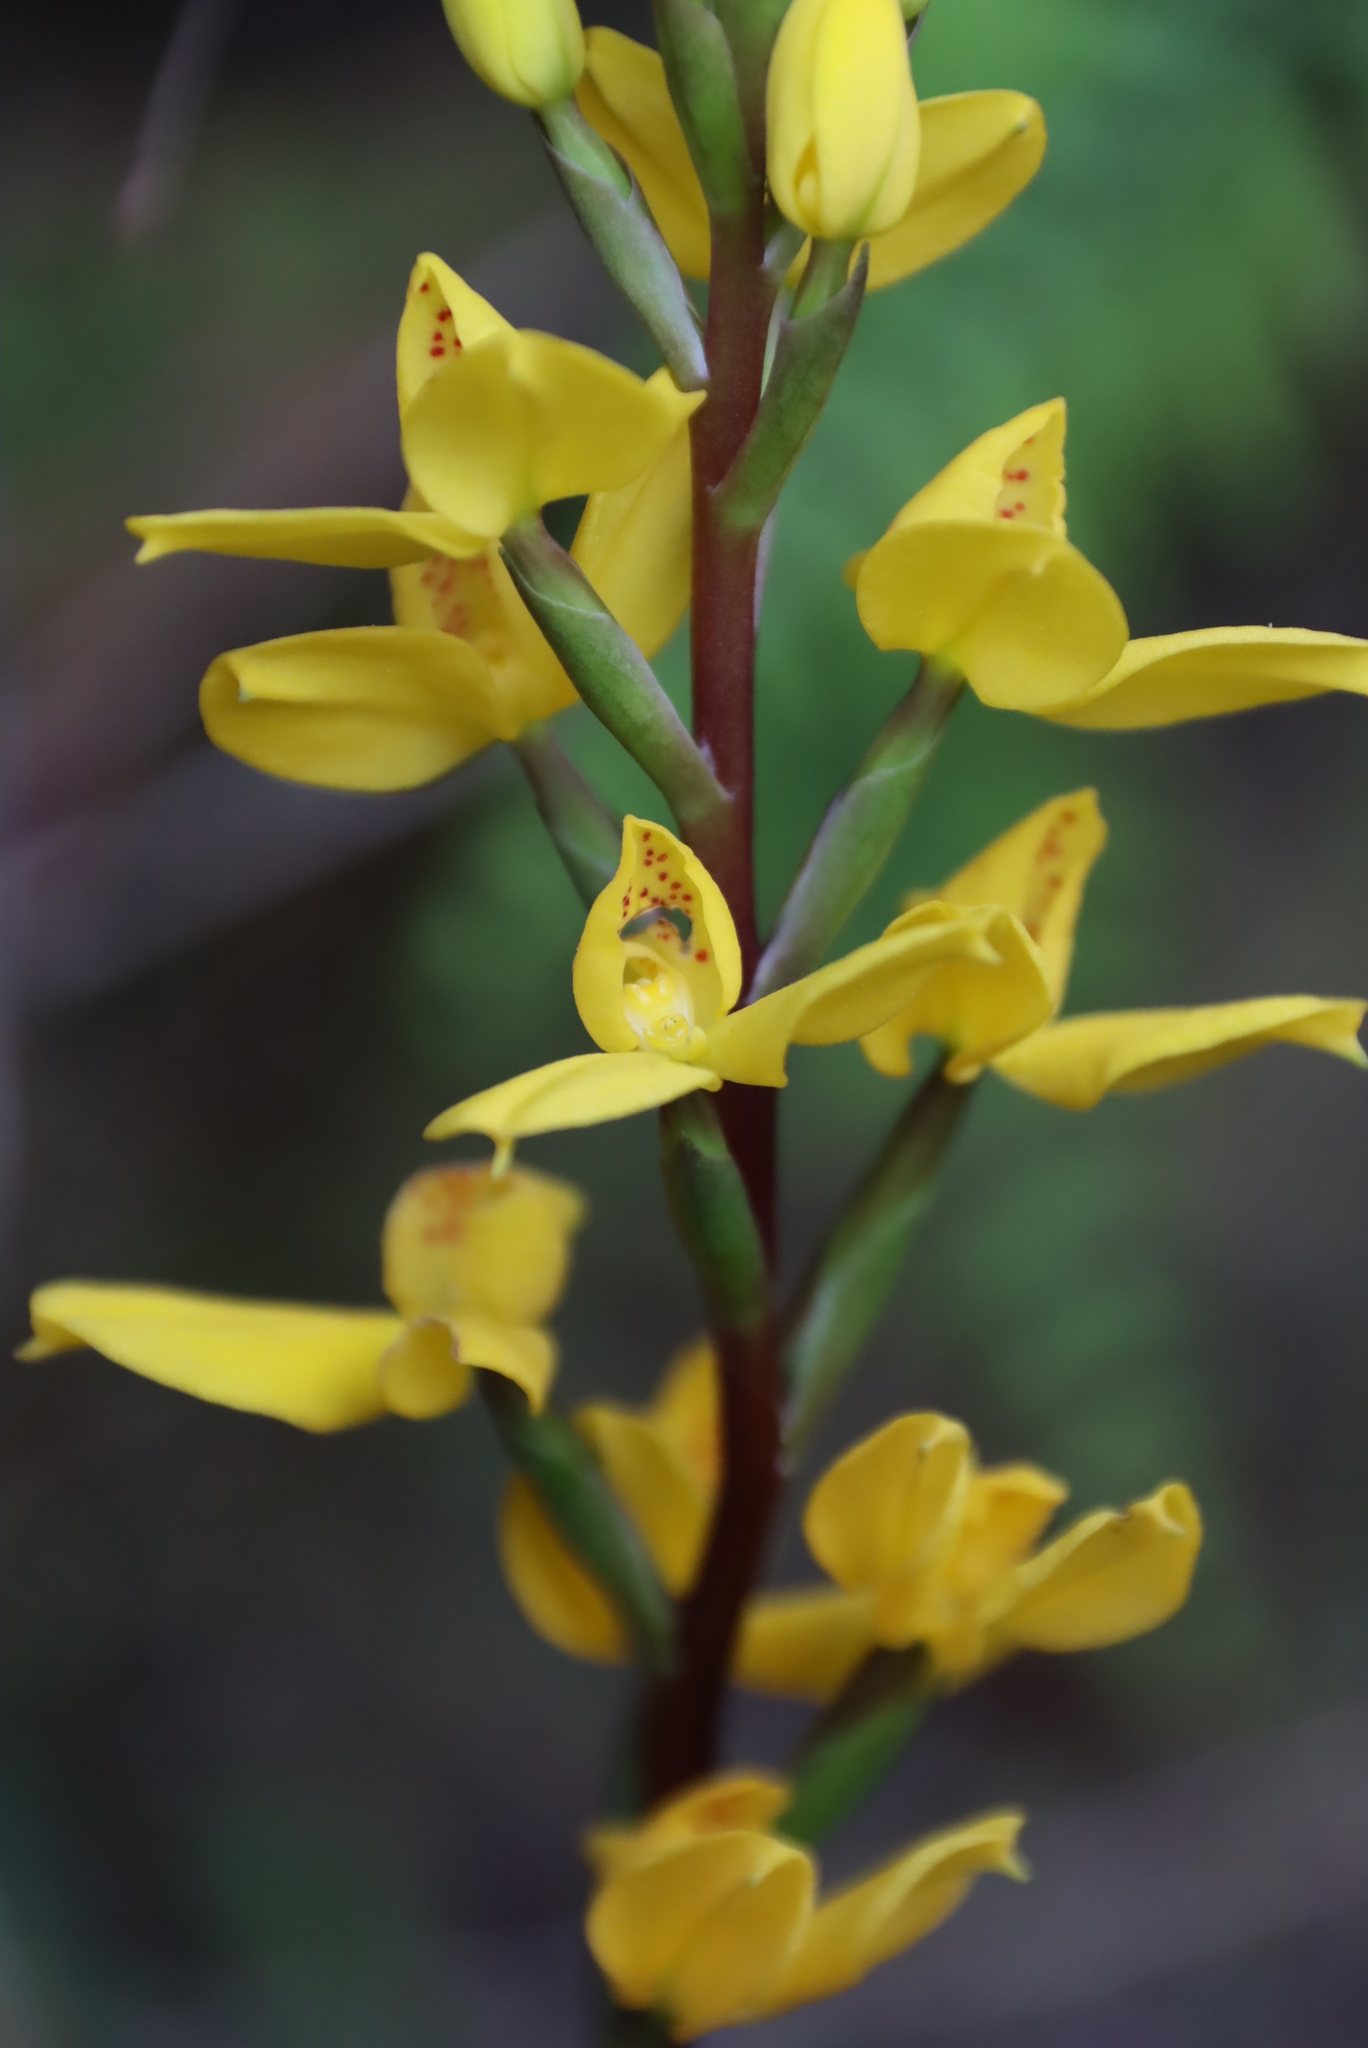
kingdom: Plantae
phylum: Tracheophyta
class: Liliopsida
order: Asparagales
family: Orchidaceae
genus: Disa
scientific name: Disa aurata
